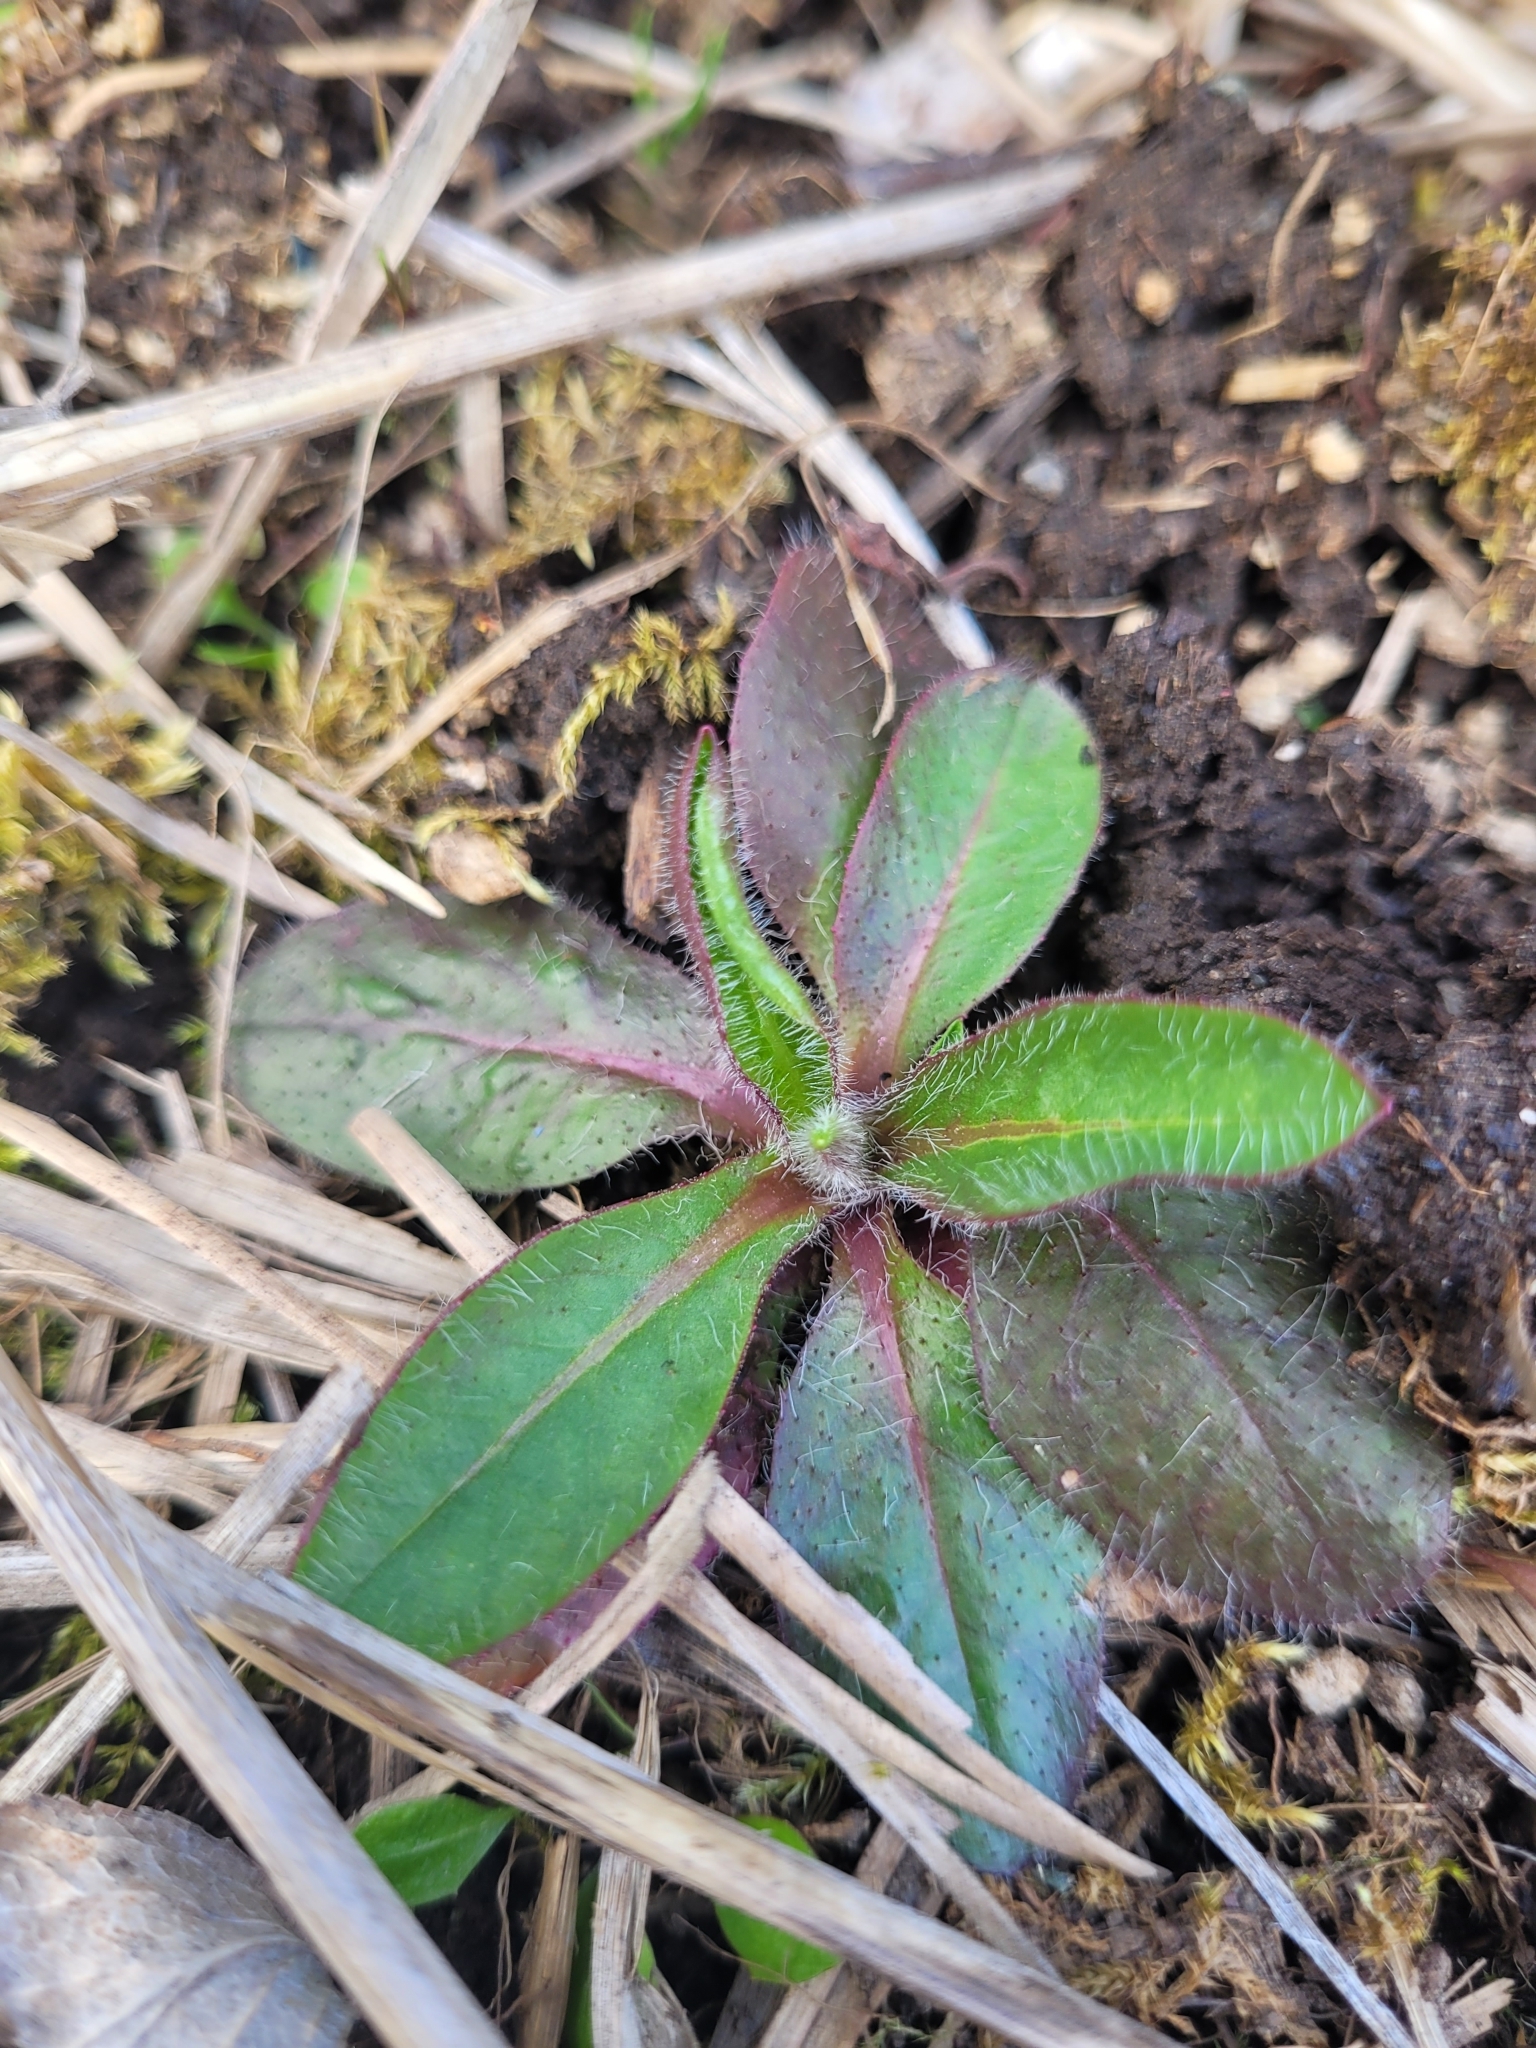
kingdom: Plantae
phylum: Tracheophyta
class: Magnoliopsida
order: Asterales
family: Asteraceae
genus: Pilosella
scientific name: Pilosella aurantiaca
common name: Fox-and-cubs
